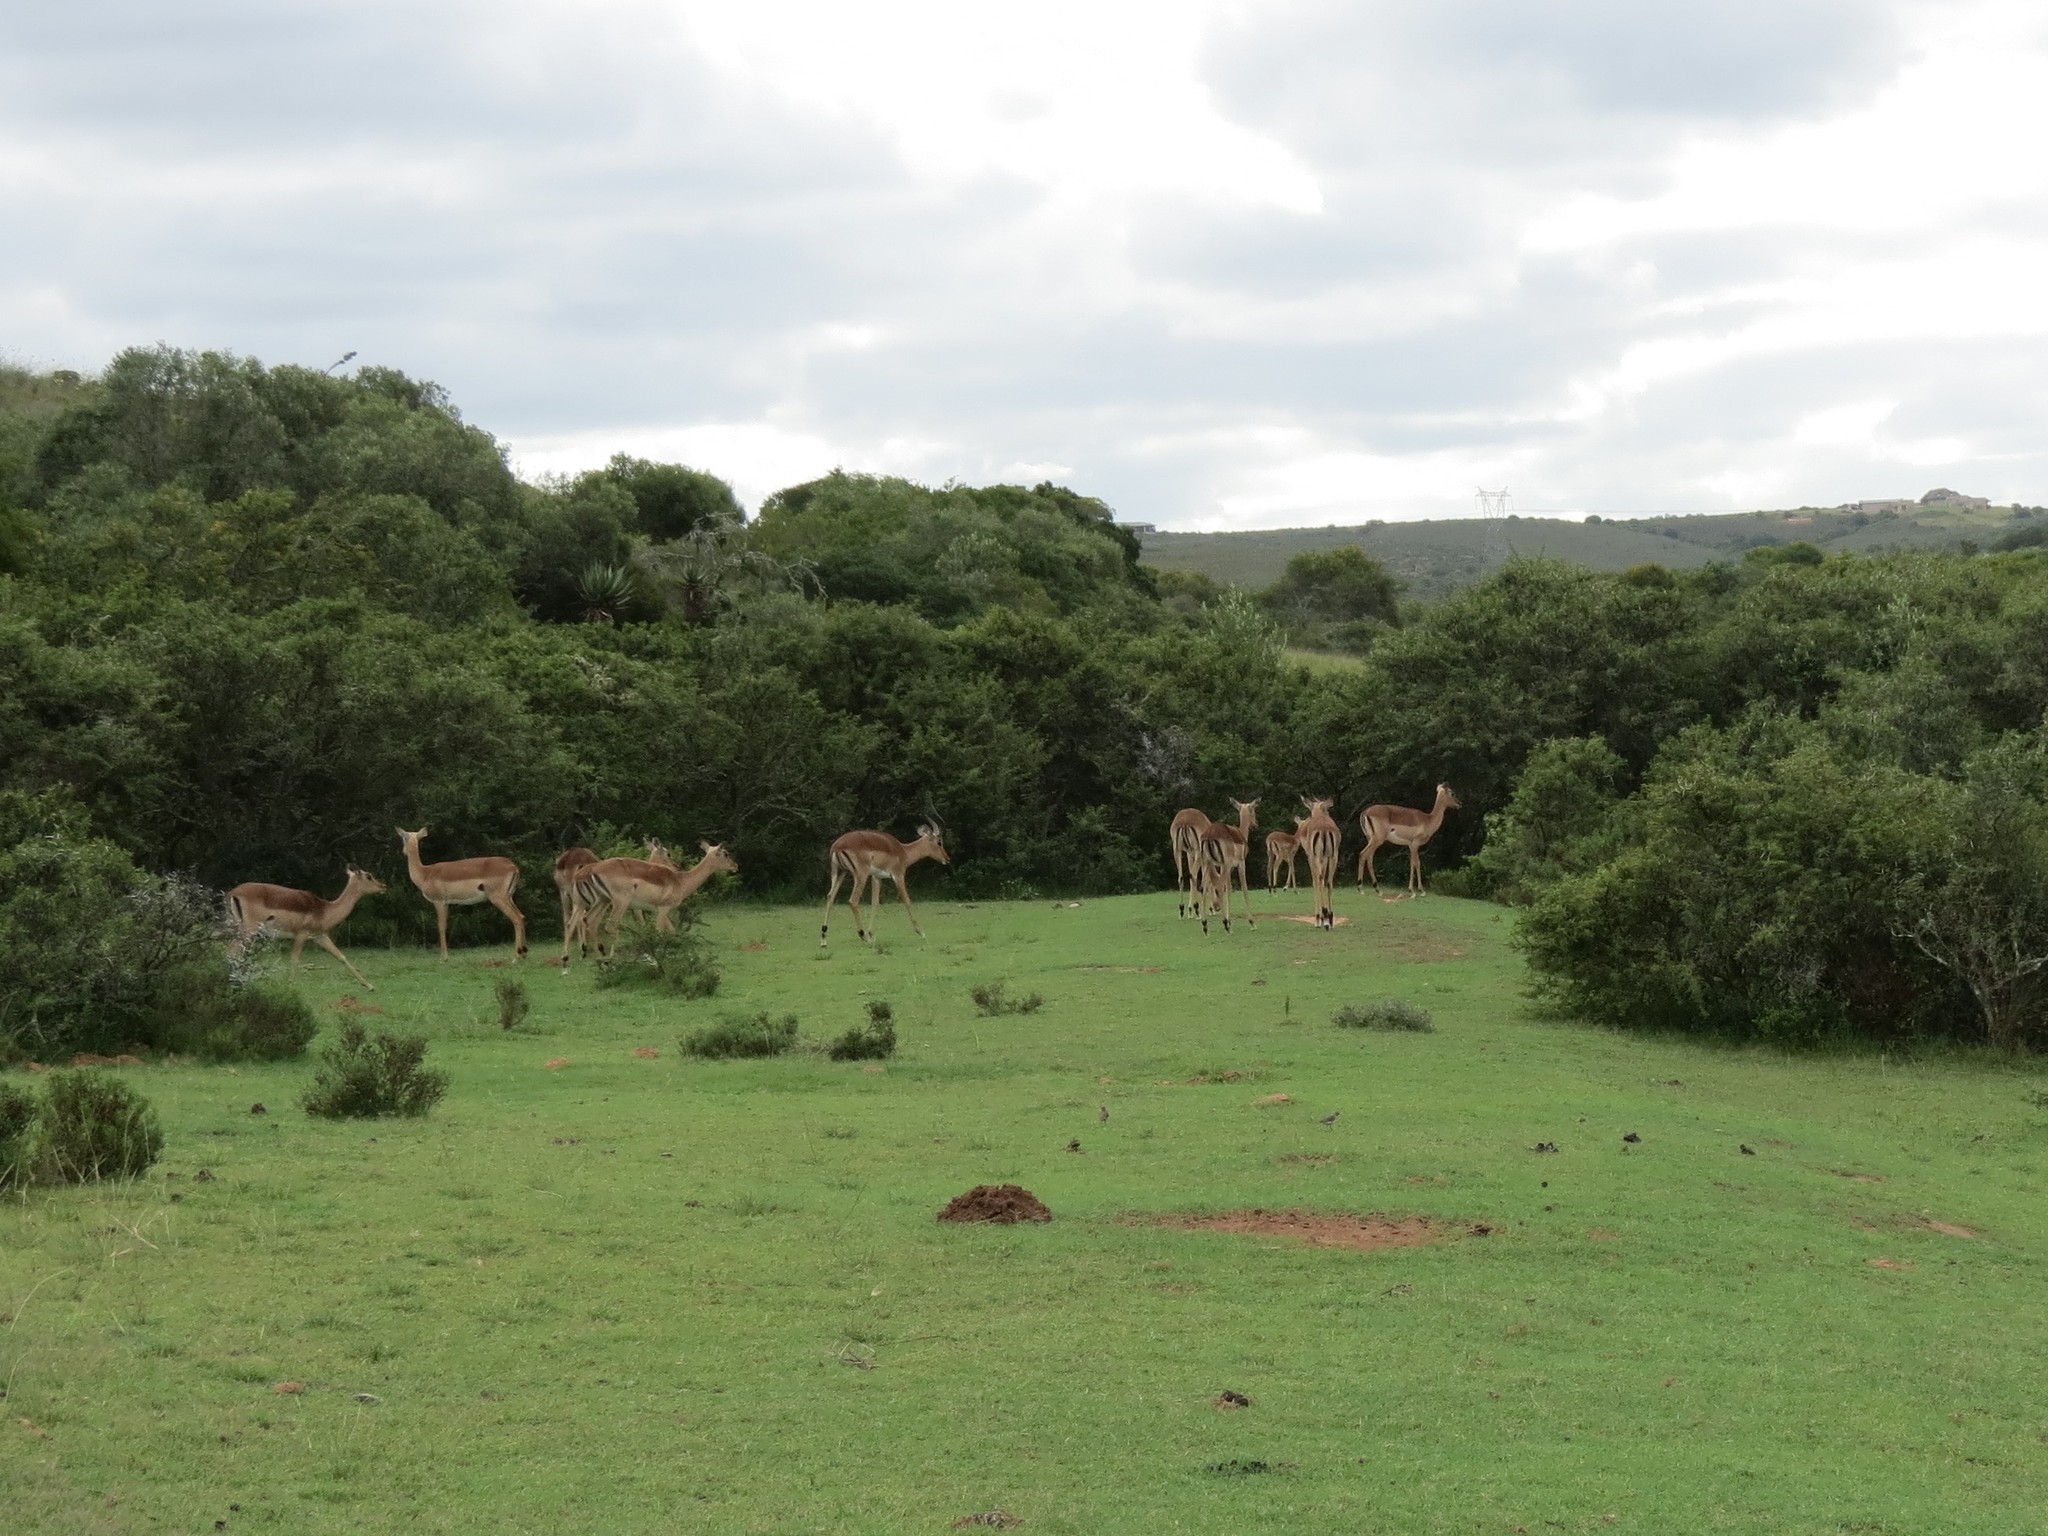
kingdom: Animalia
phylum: Chordata
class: Mammalia
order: Artiodactyla
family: Bovidae
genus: Aepyceros
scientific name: Aepyceros melampus
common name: Impala
